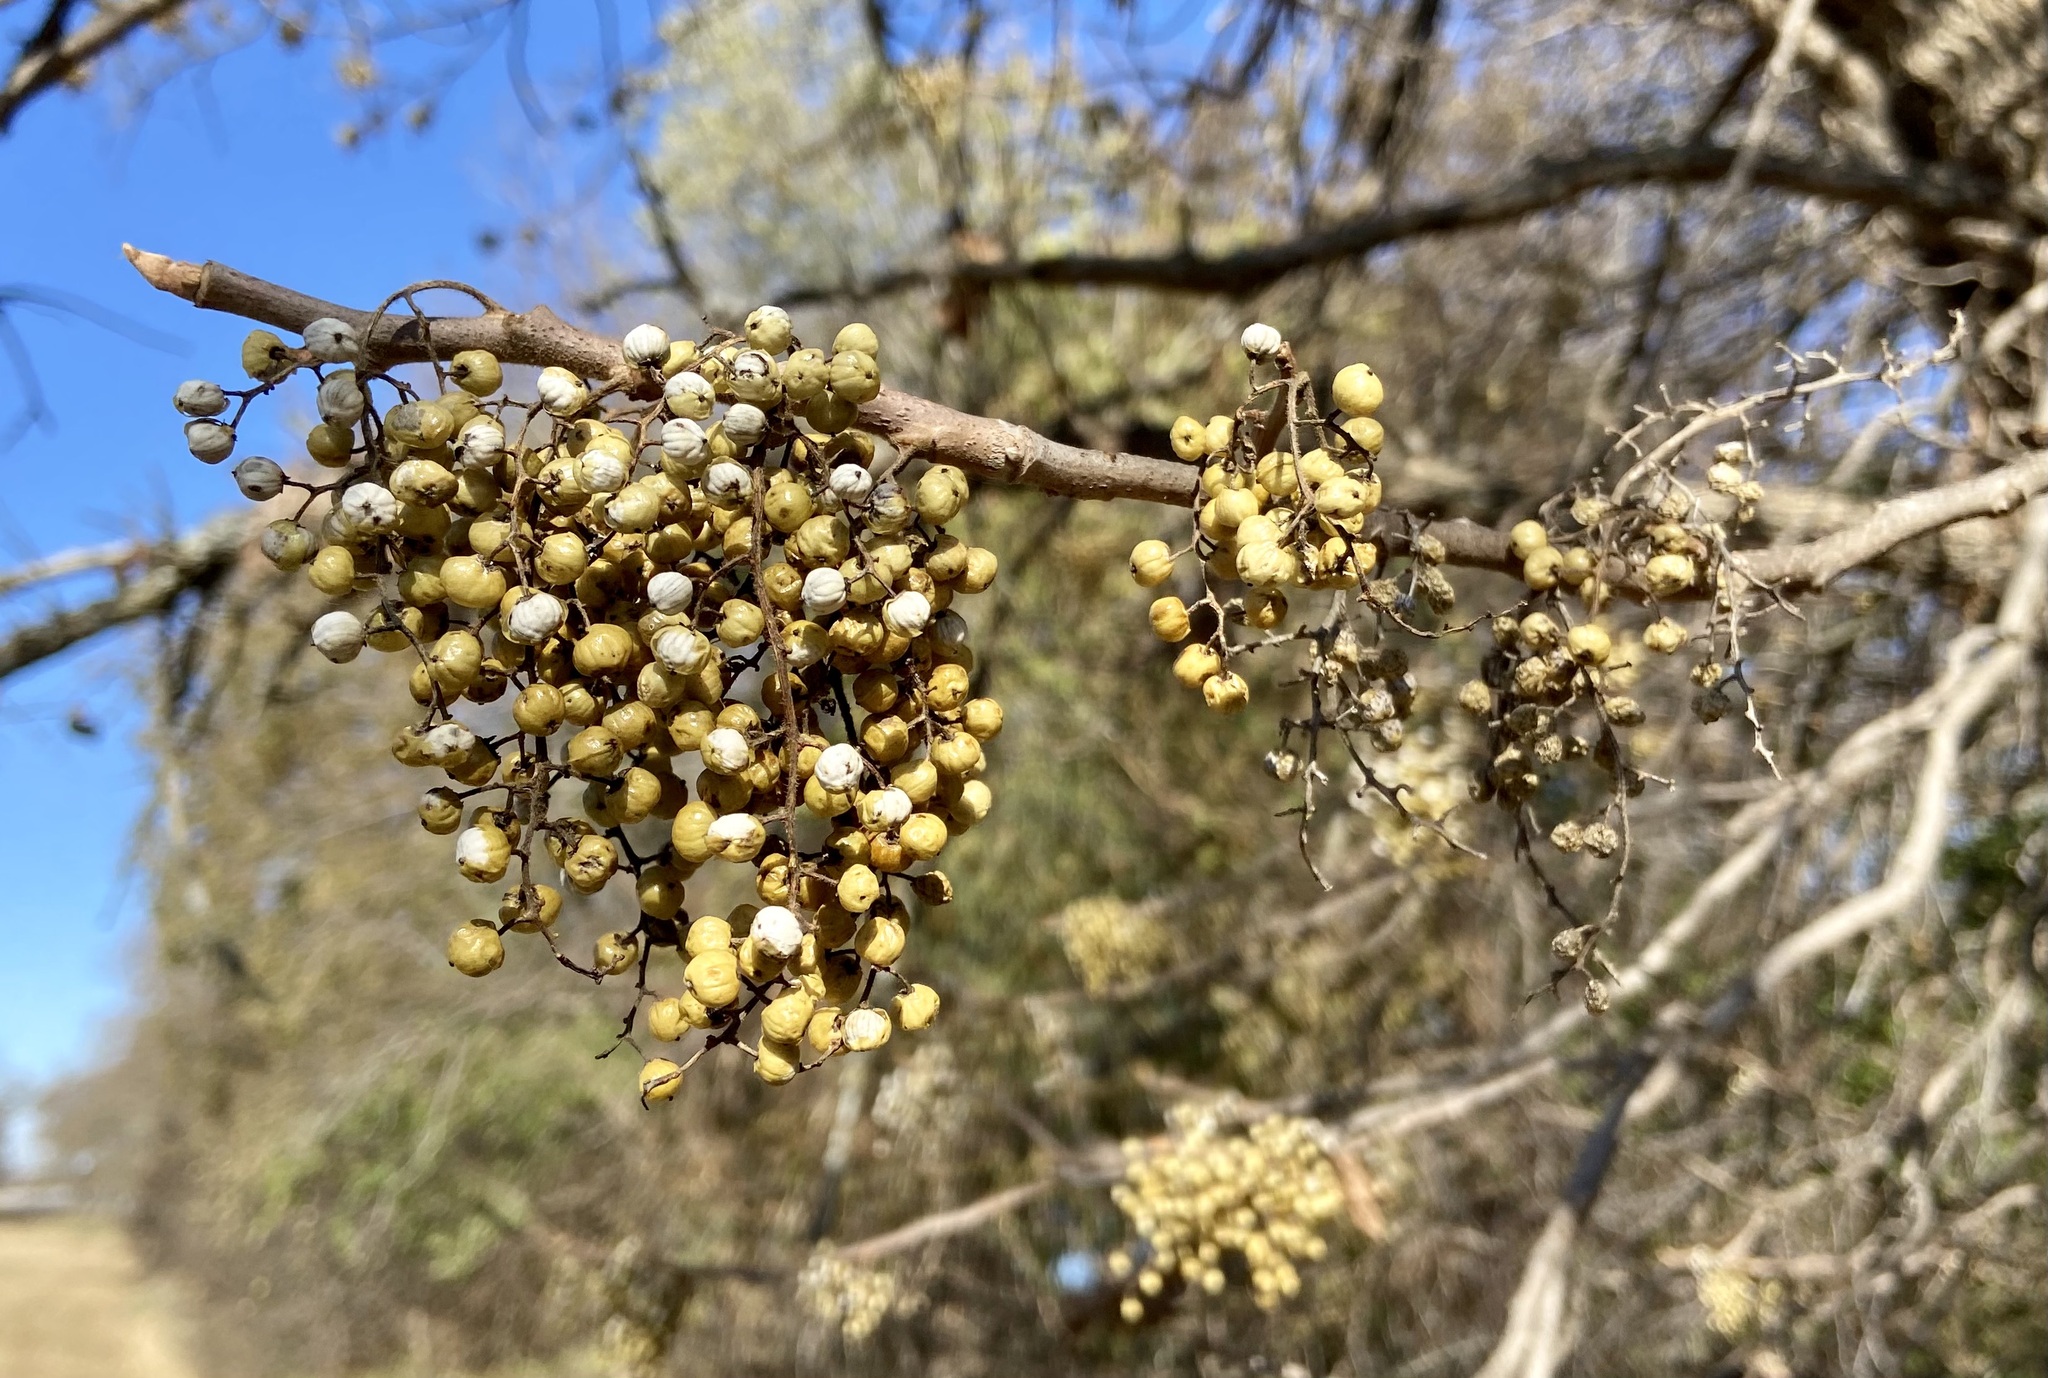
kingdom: Plantae
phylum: Tracheophyta
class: Magnoliopsida
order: Sapindales
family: Anacardiaceae
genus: Toxicodendron
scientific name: Toxicodendron radicans
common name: Poison ivy
